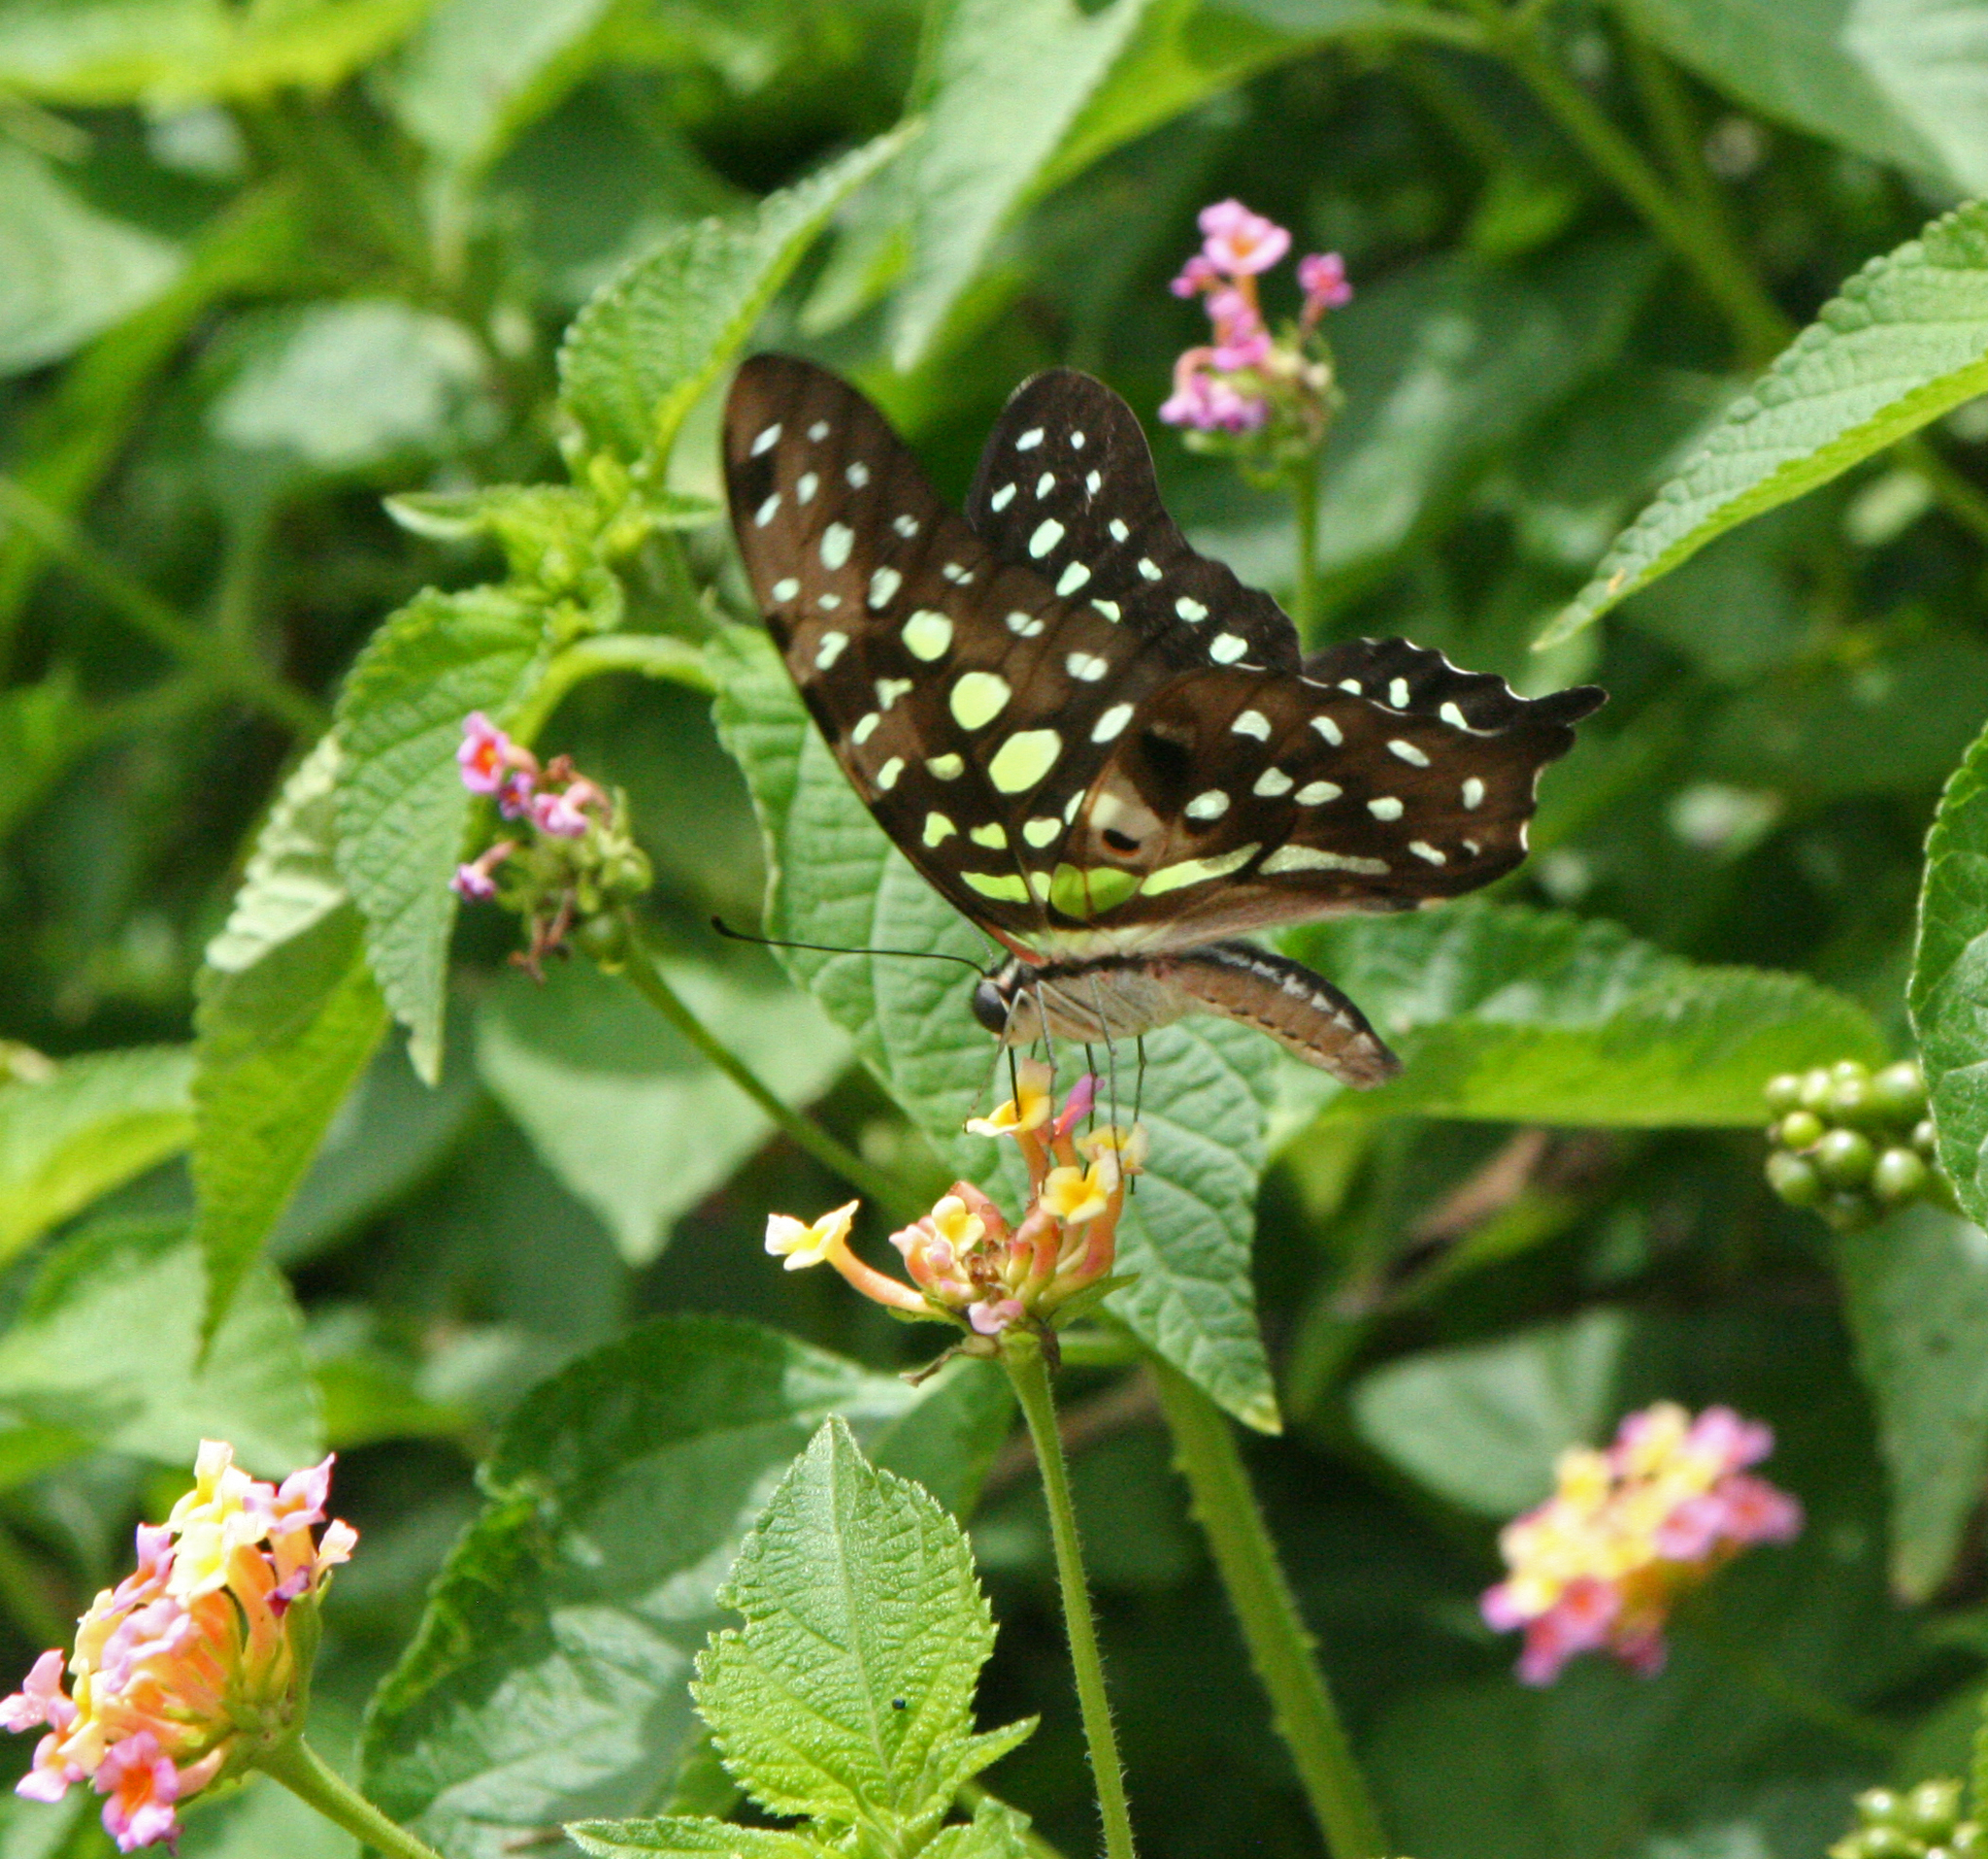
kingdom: Animalia
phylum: Arthropoda
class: Insecta
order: Lepidoptera
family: Papilionidae
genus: Graphium
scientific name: Graphium agamemnon
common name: Tailed jay
